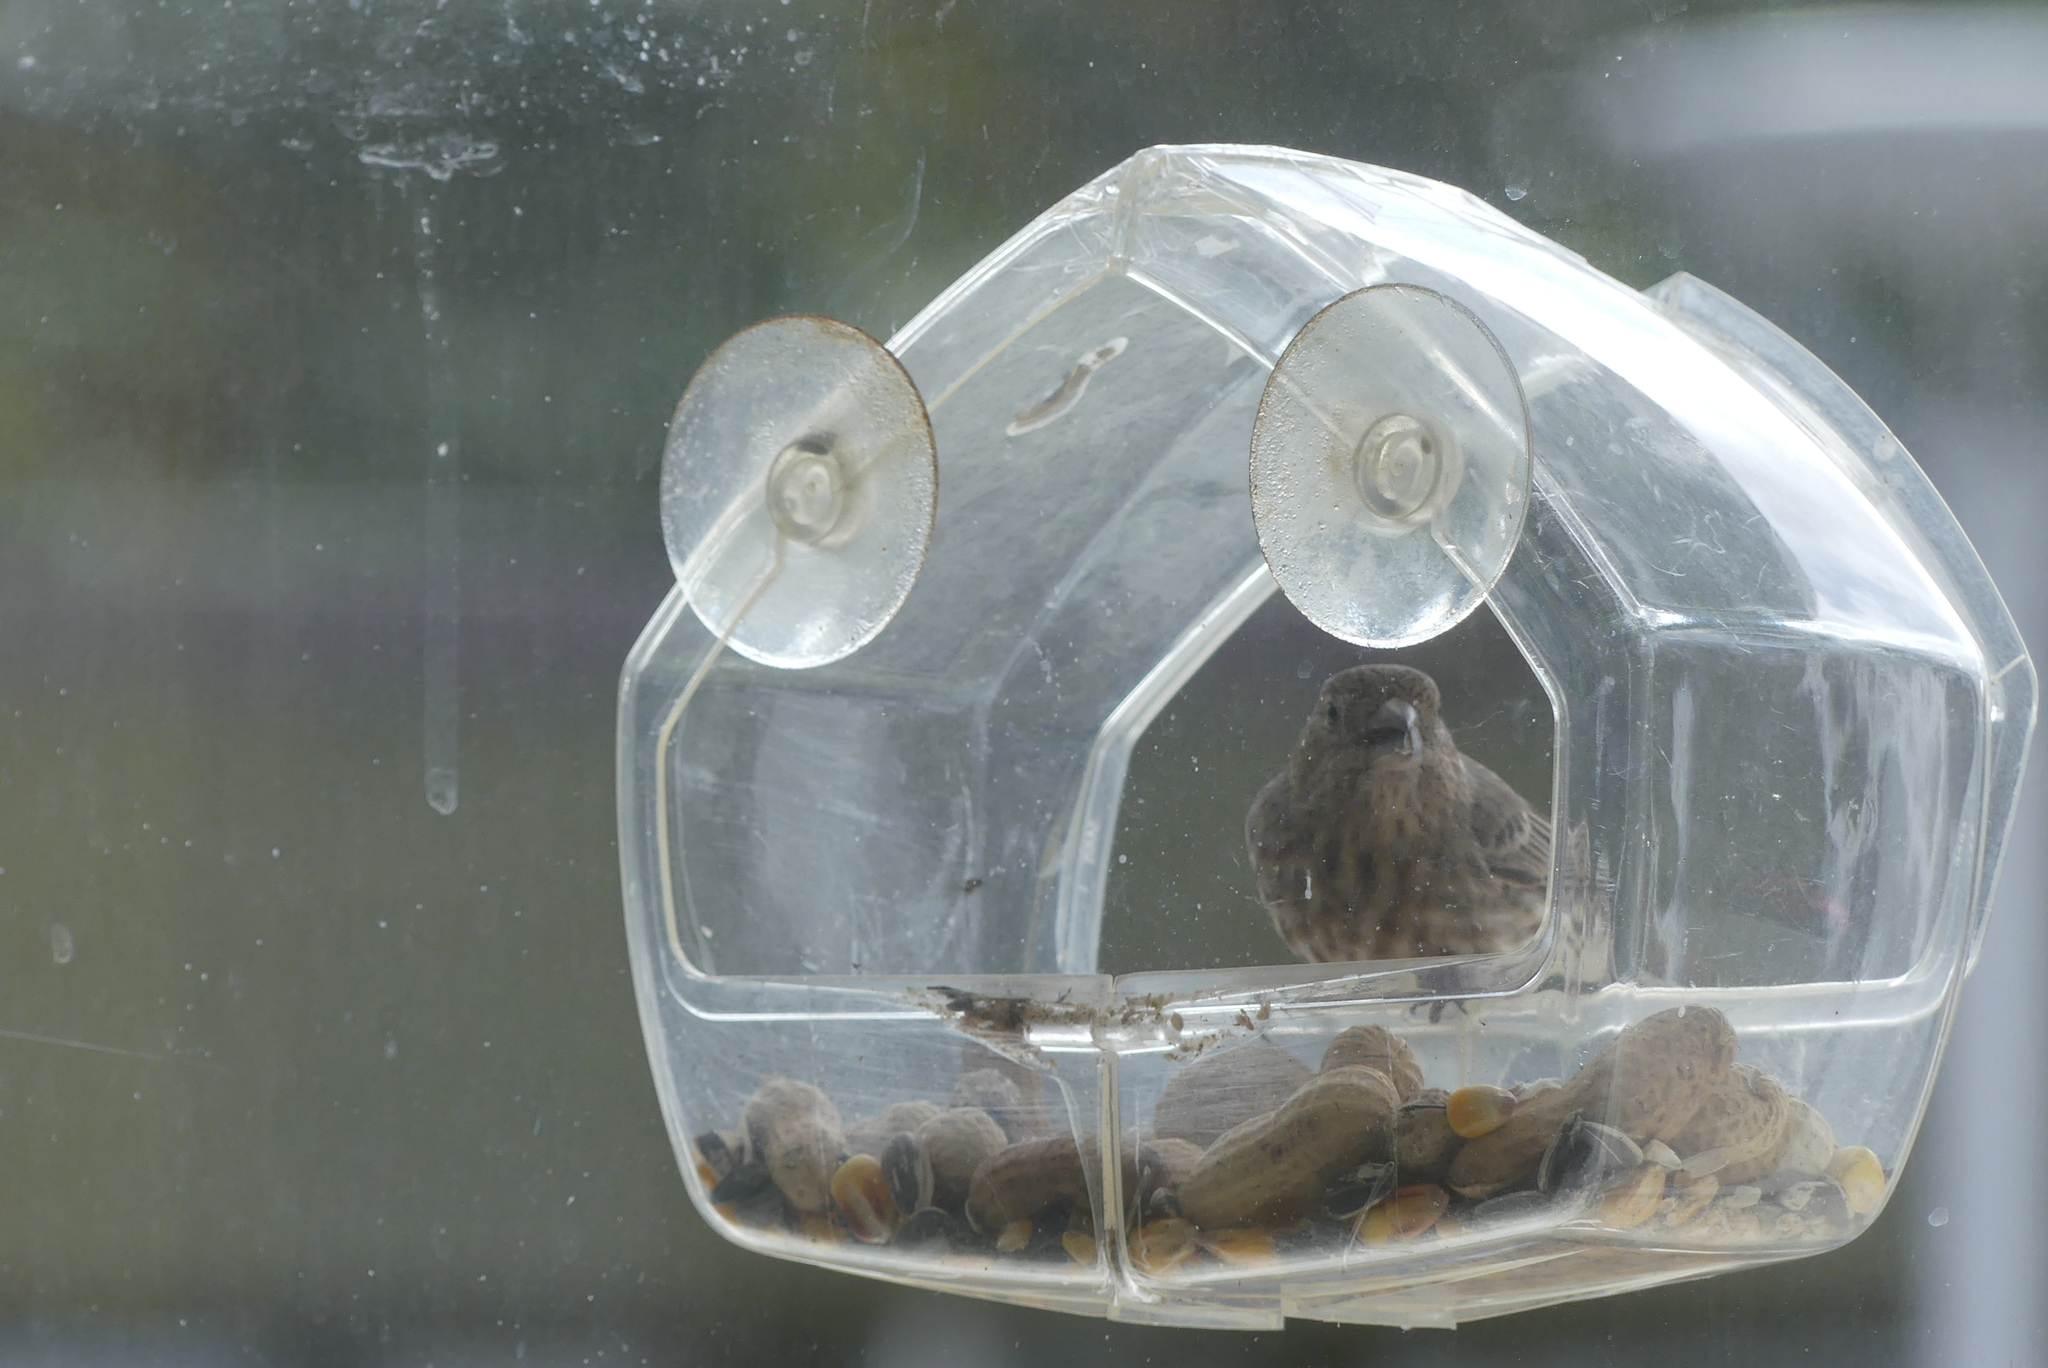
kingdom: Animalia
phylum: Chordata
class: Aves
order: Passeriformes
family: Fringillidae
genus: Haemorhous
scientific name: Haemorhous mexicanus
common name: House finch
